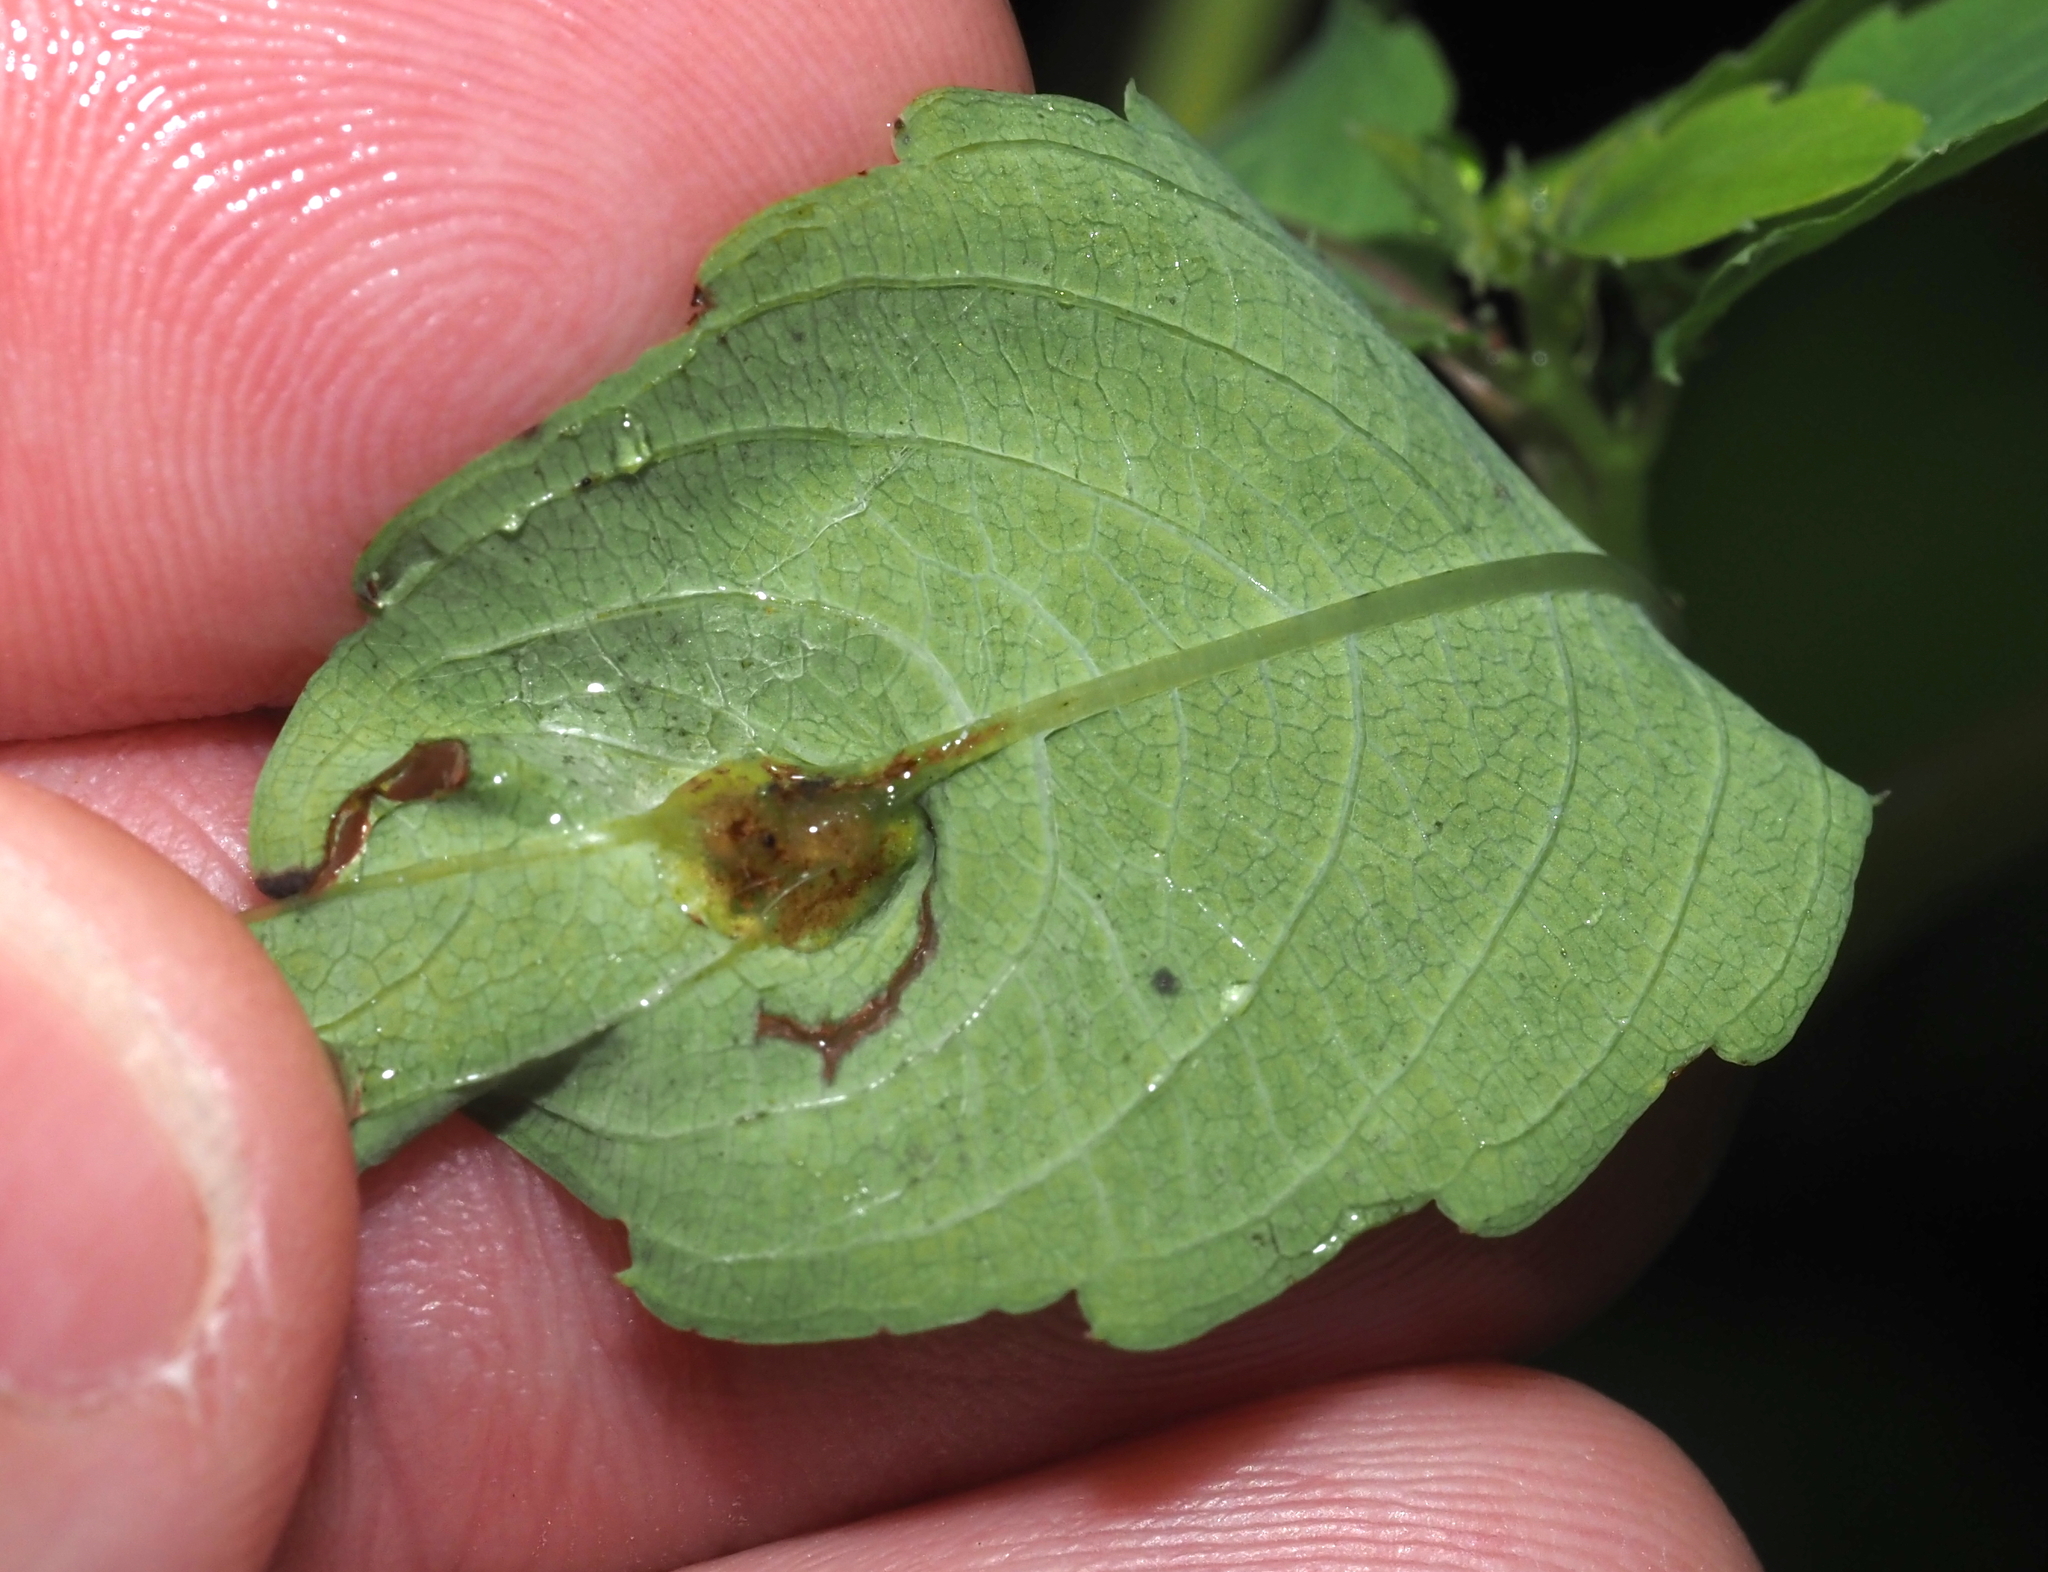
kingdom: Animalia
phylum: Arthropoda
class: Insecta
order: Diptera
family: Cecidomyiidae
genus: Neolasioptera
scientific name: Neolasioptera impatientifolia
